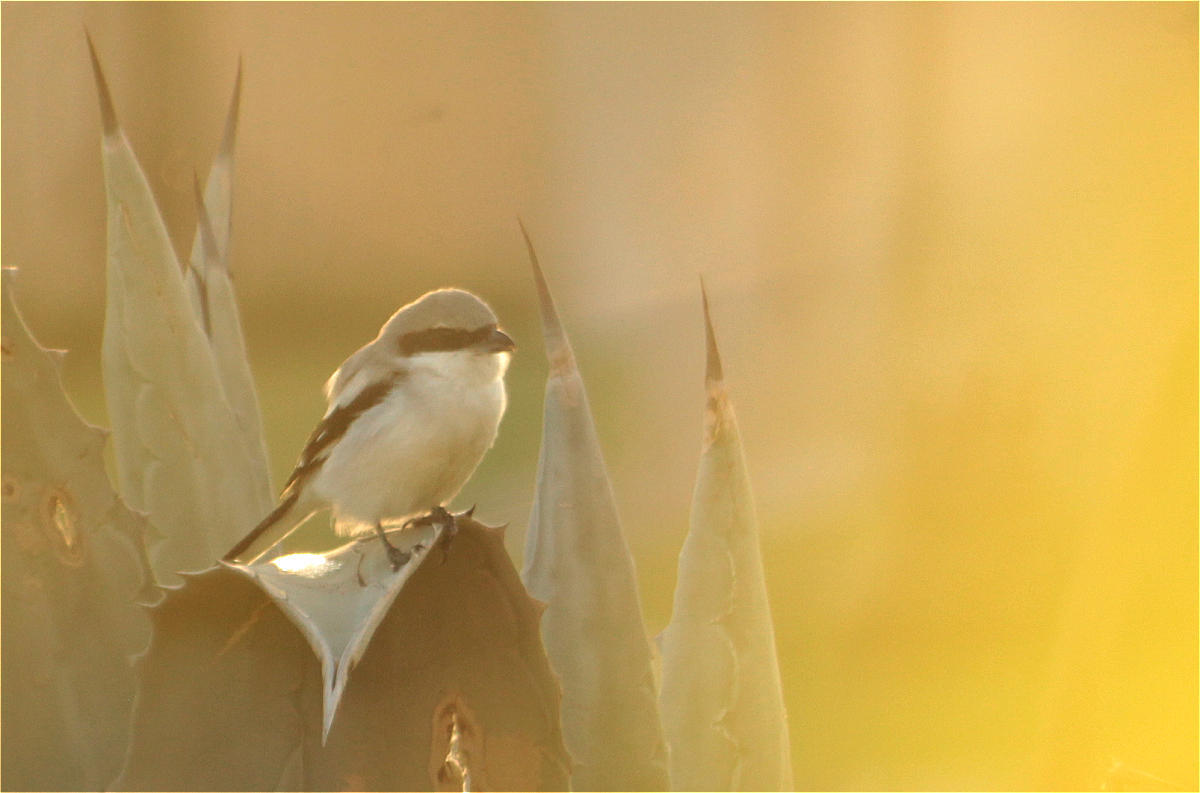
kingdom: Animalia
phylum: Chordata
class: Aves
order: Passeriformes
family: Laniidae
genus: Lanius
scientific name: Lanius excubitor
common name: Great grey shrike
